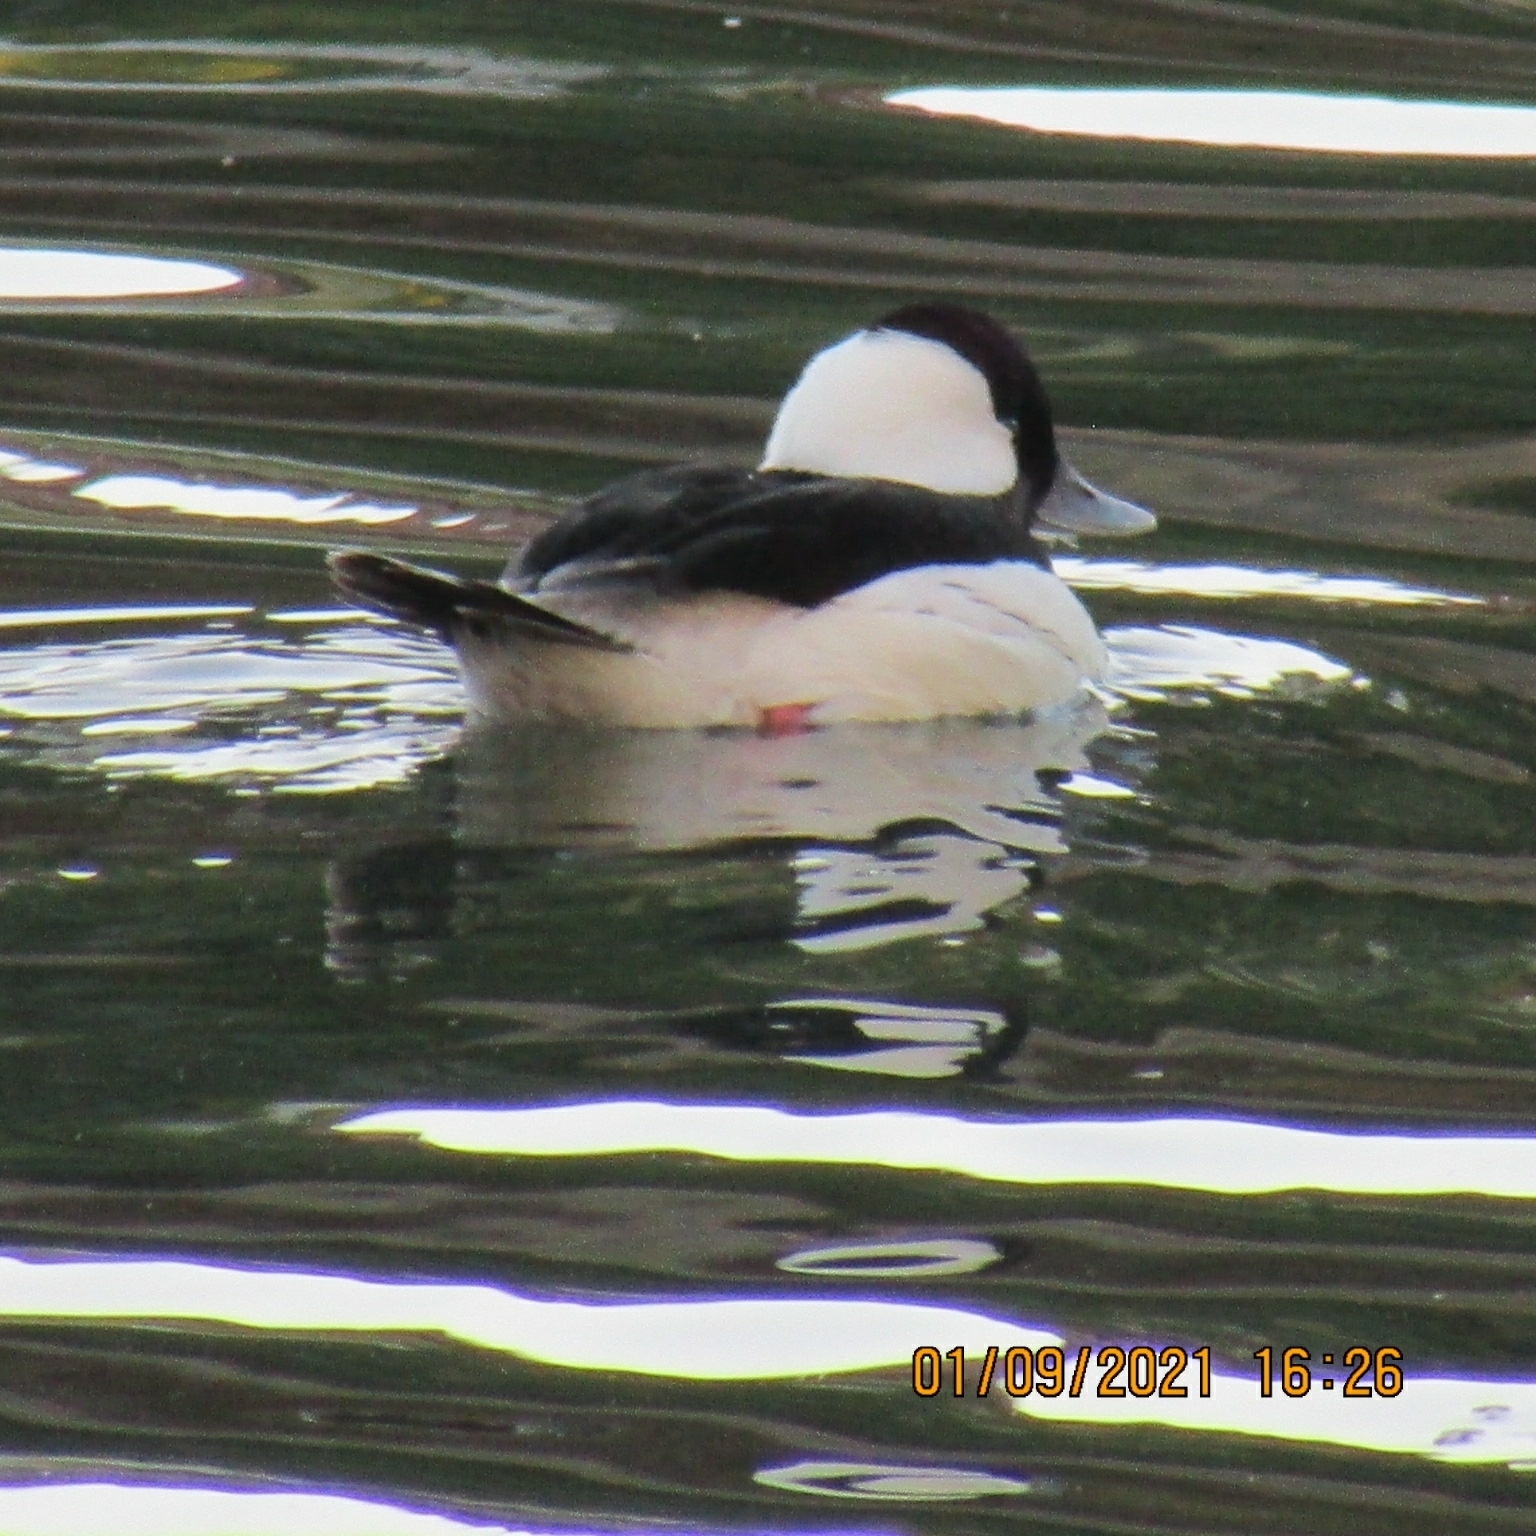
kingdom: Animalia
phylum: Chordata
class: Aves
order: Anseriformes
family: Anatidae
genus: Bucephala
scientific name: Bucephala albeola
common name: Bufflehead
